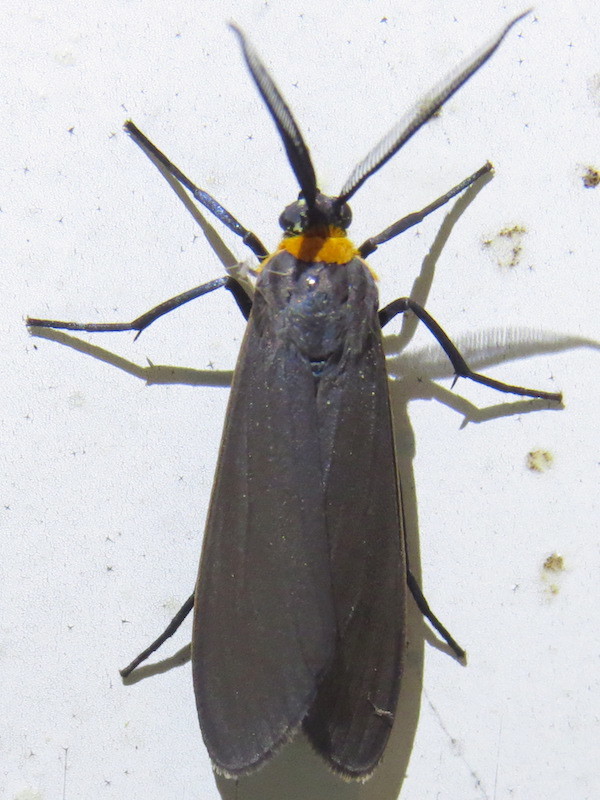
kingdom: Animalia
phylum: Arthropoda
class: Insecta
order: Lepidoptera
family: Erebidae
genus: Cisseps
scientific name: Cisseps fulvicollis
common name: Yellow-collared scape moth
